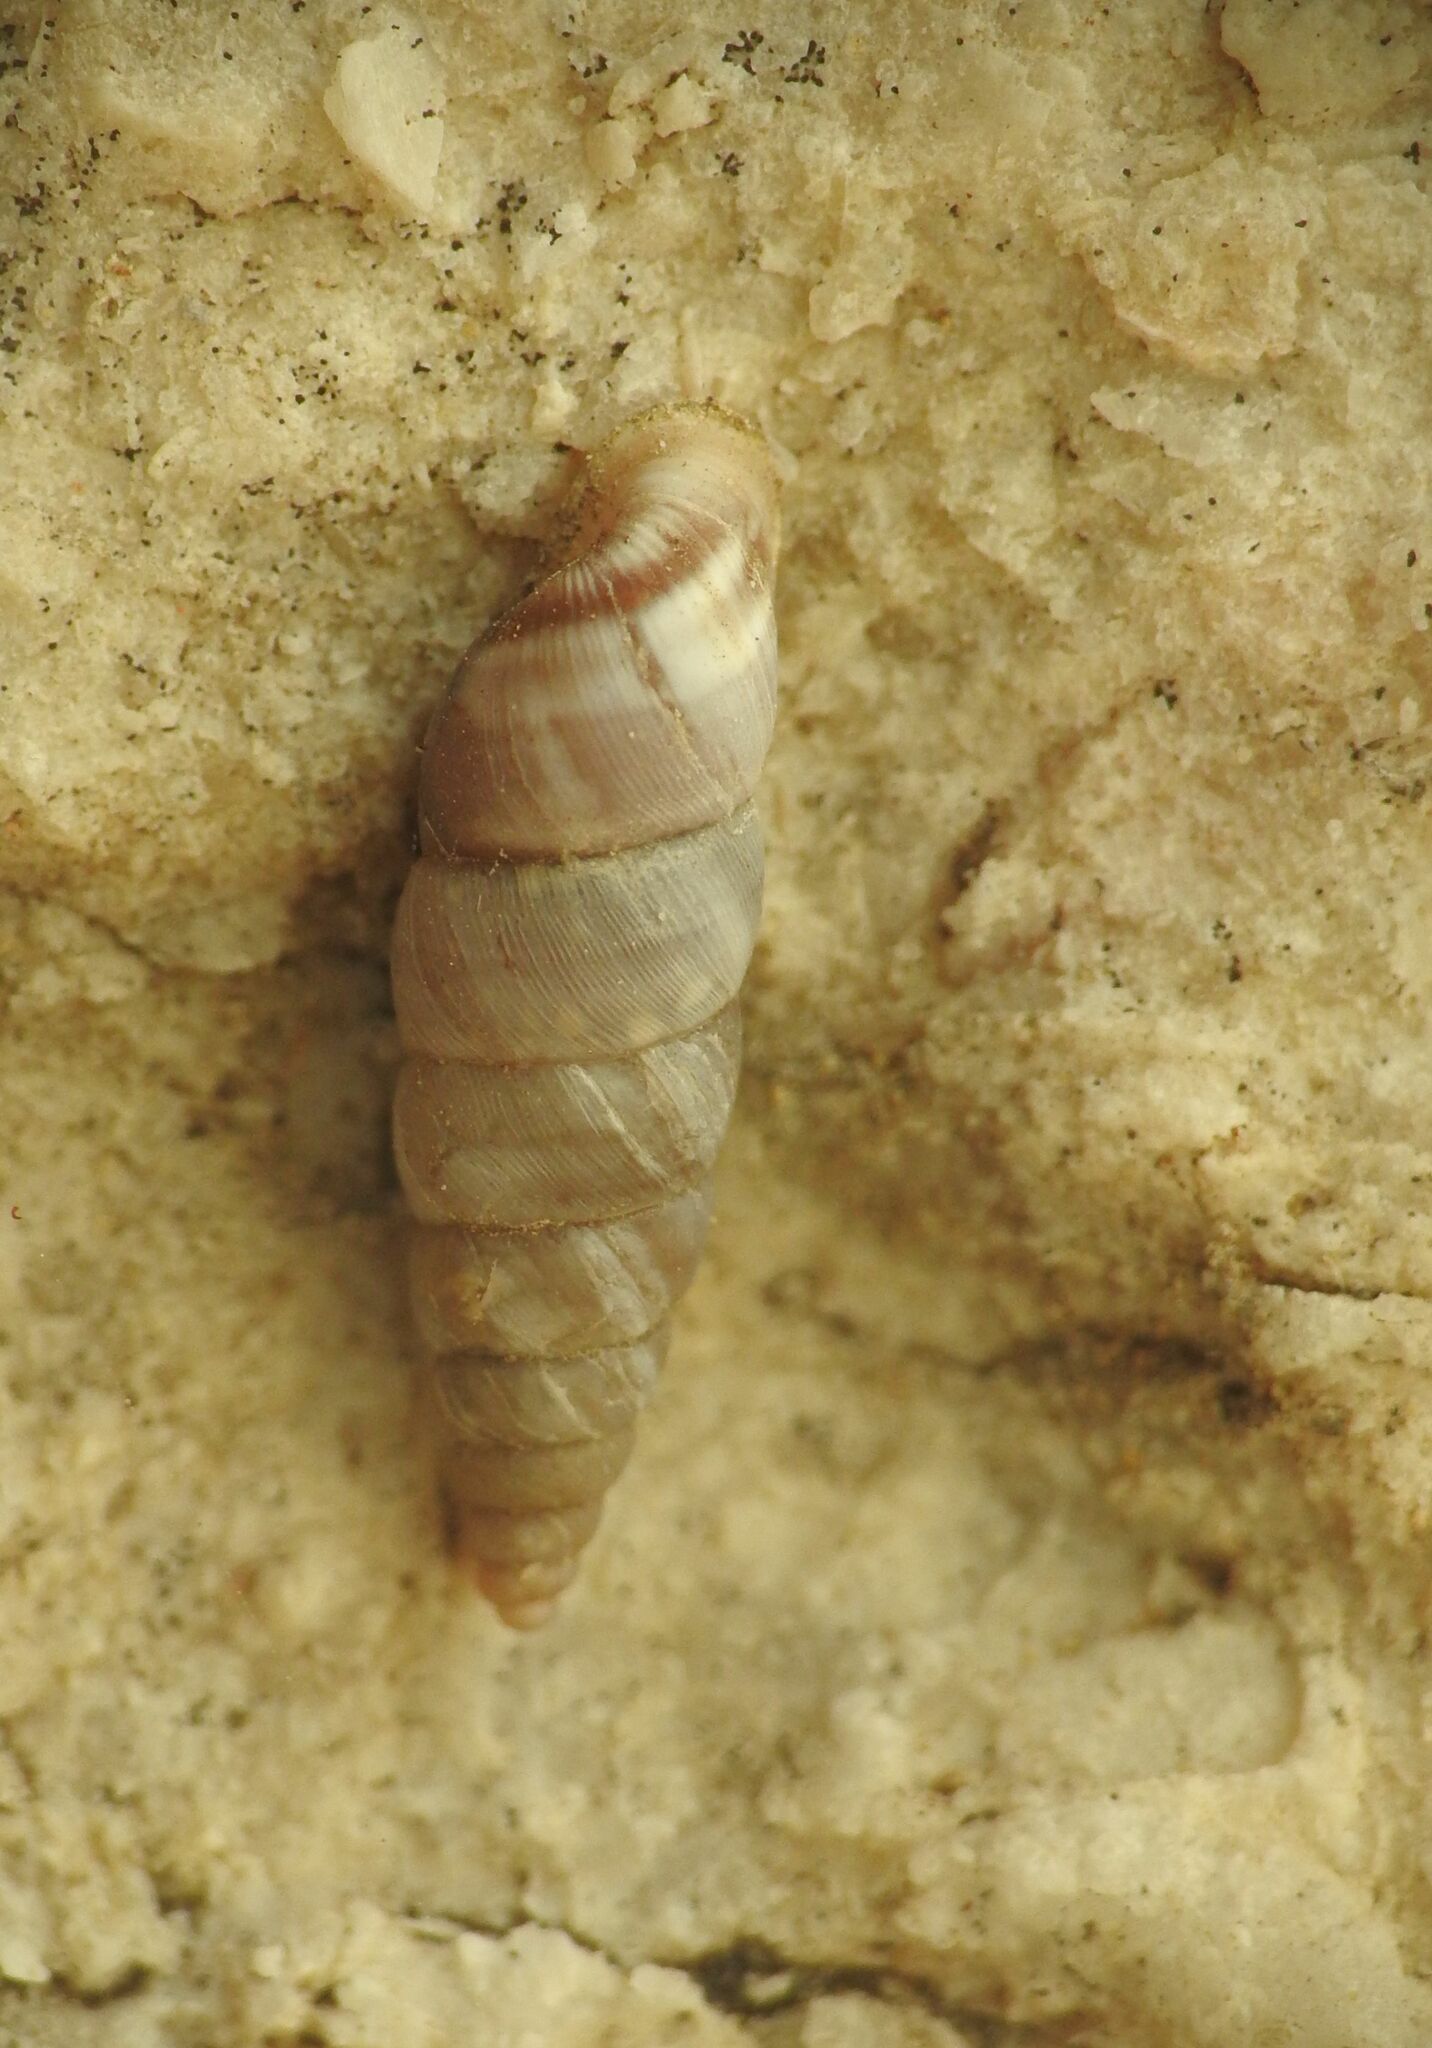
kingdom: Animalia
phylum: Mollusca
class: Gastropoda
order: Stylommatophora
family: Chondrinidae
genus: Solatopupa
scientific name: Solatopupa similis
